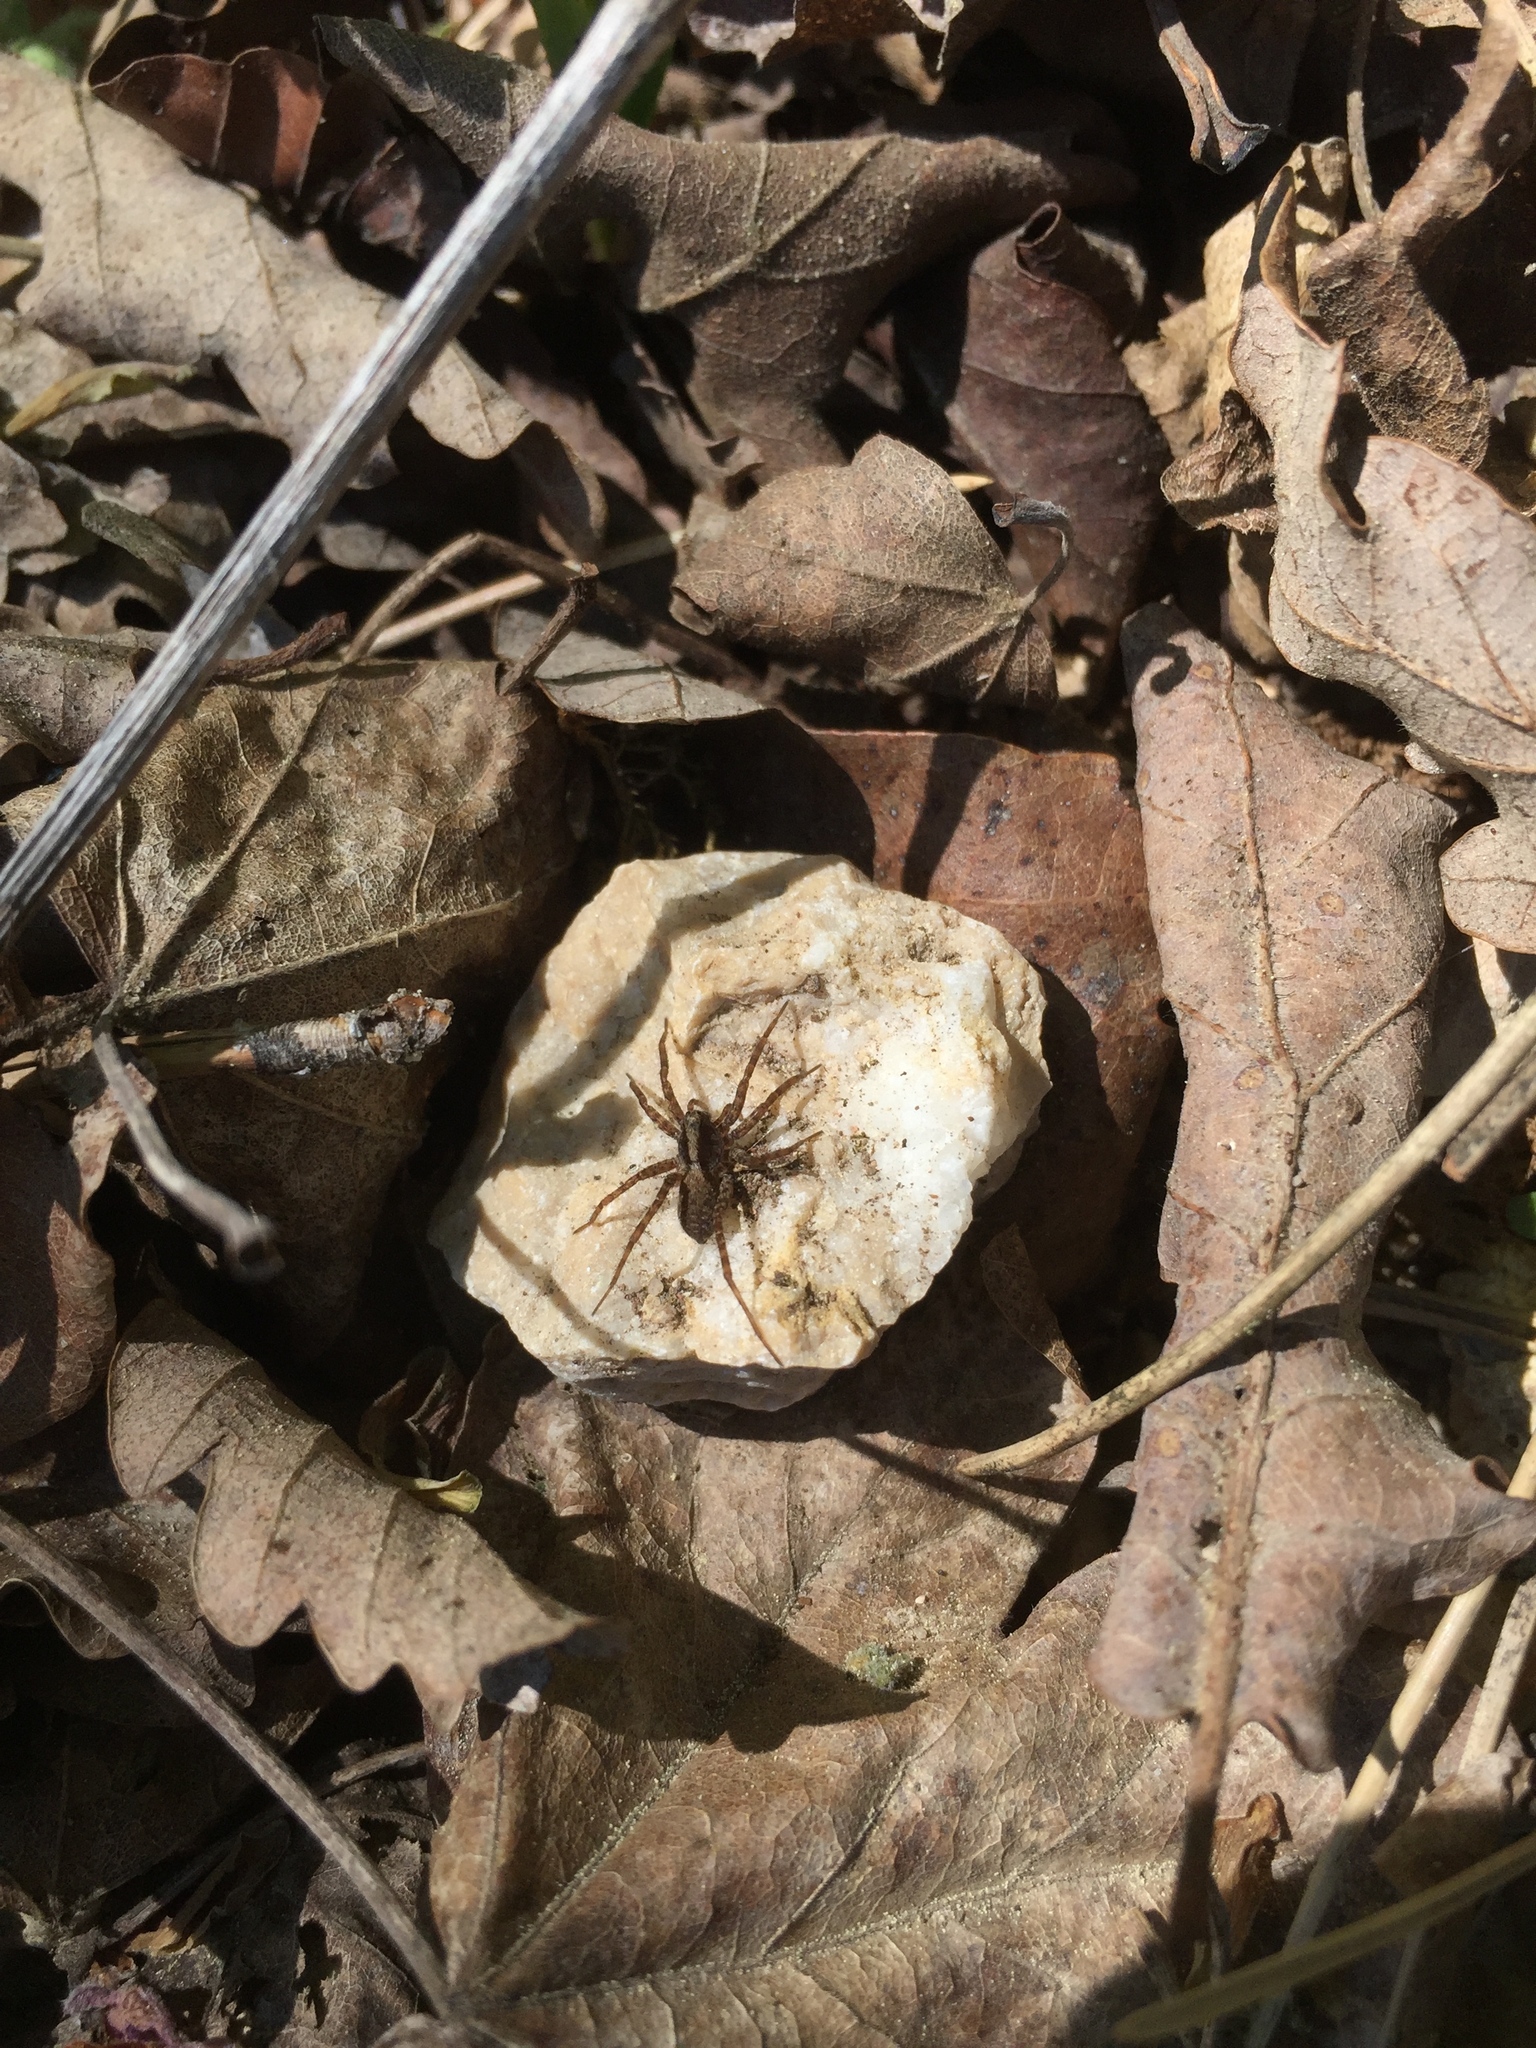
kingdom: Animalia
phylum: Arthropoda
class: Arachnida
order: Araneae
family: Lycosidae
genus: Pardosa
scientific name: Pardosa
